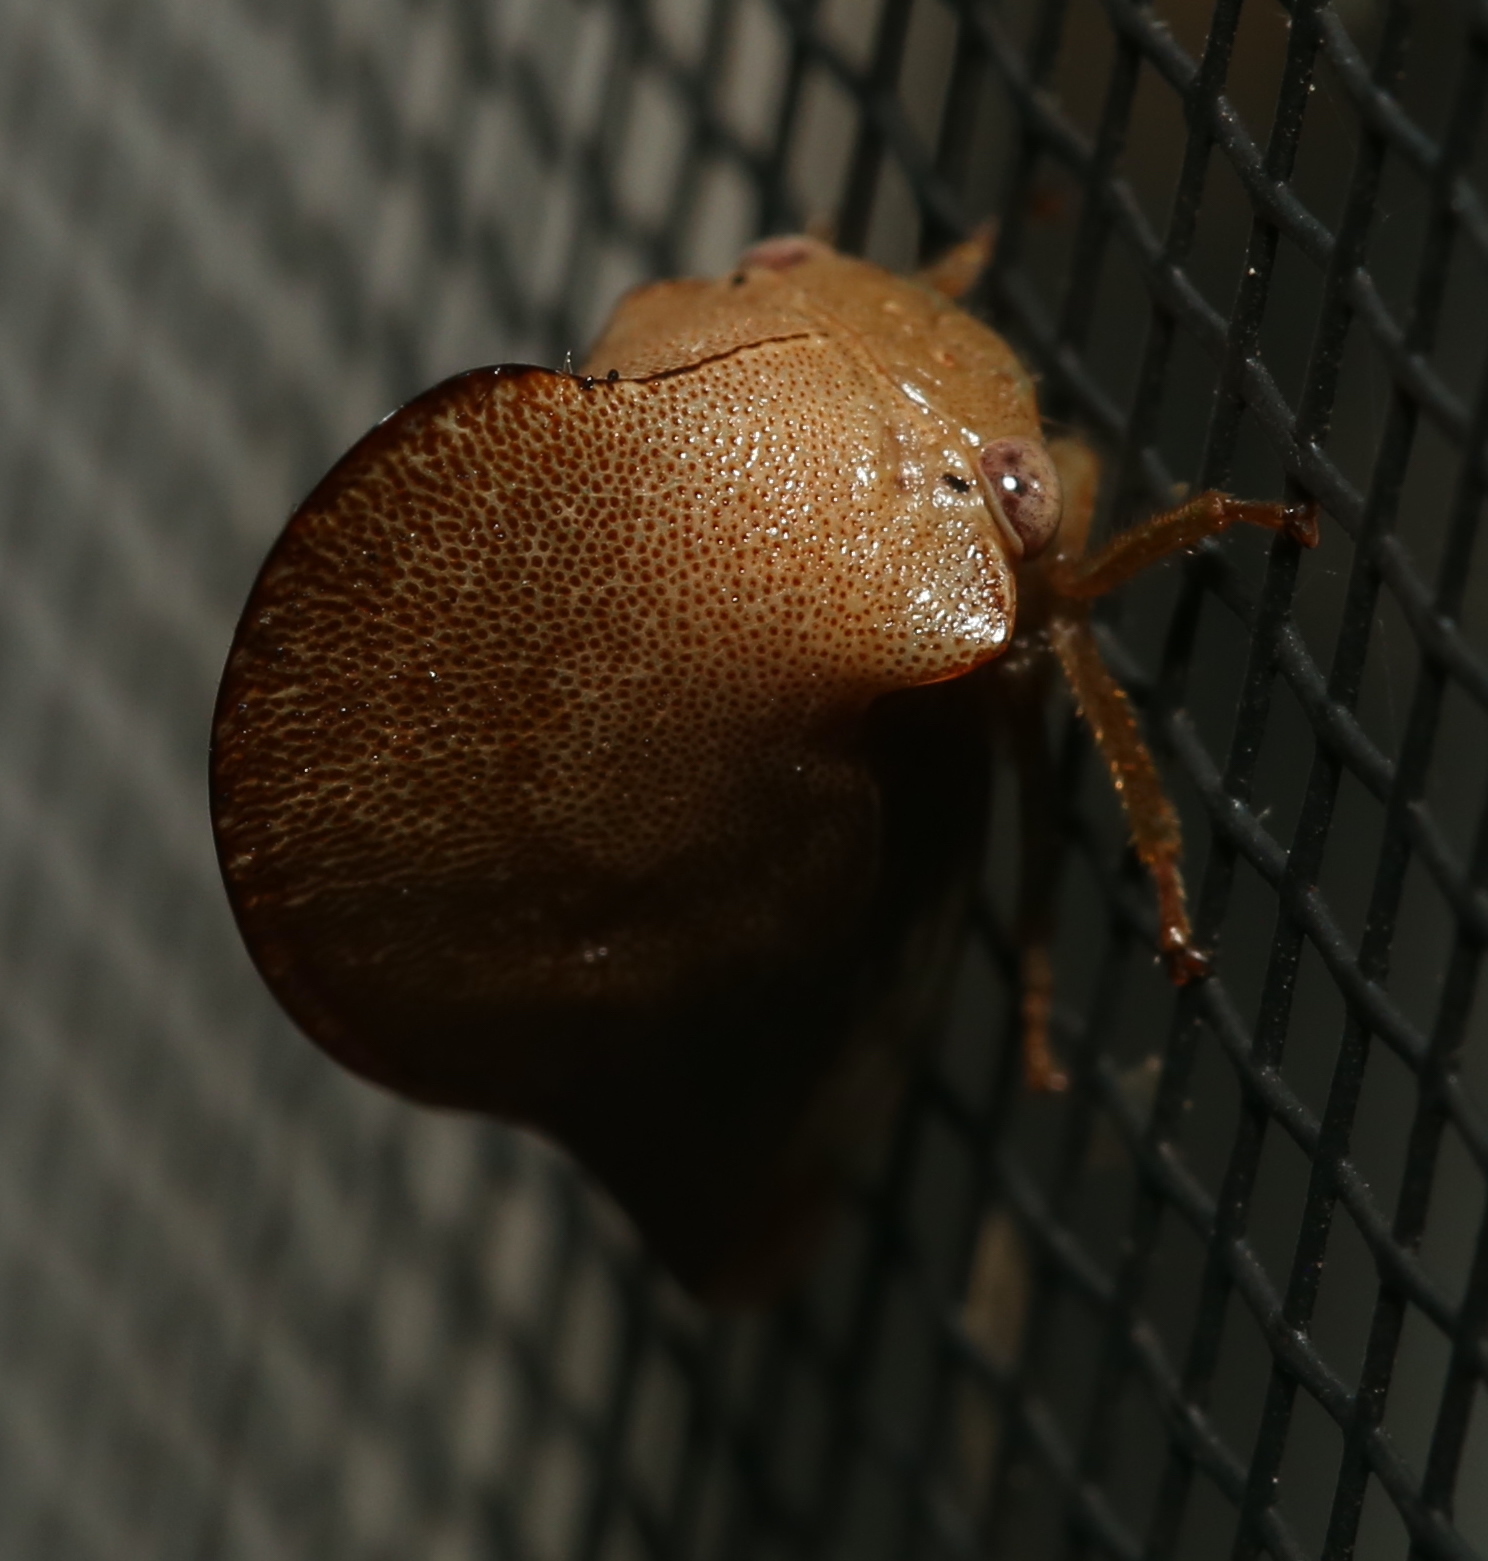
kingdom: Animalia
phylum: Arthropoda
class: Insecta
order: Hemiptera
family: Membracidae
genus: Telamona
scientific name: Telamona extrema
